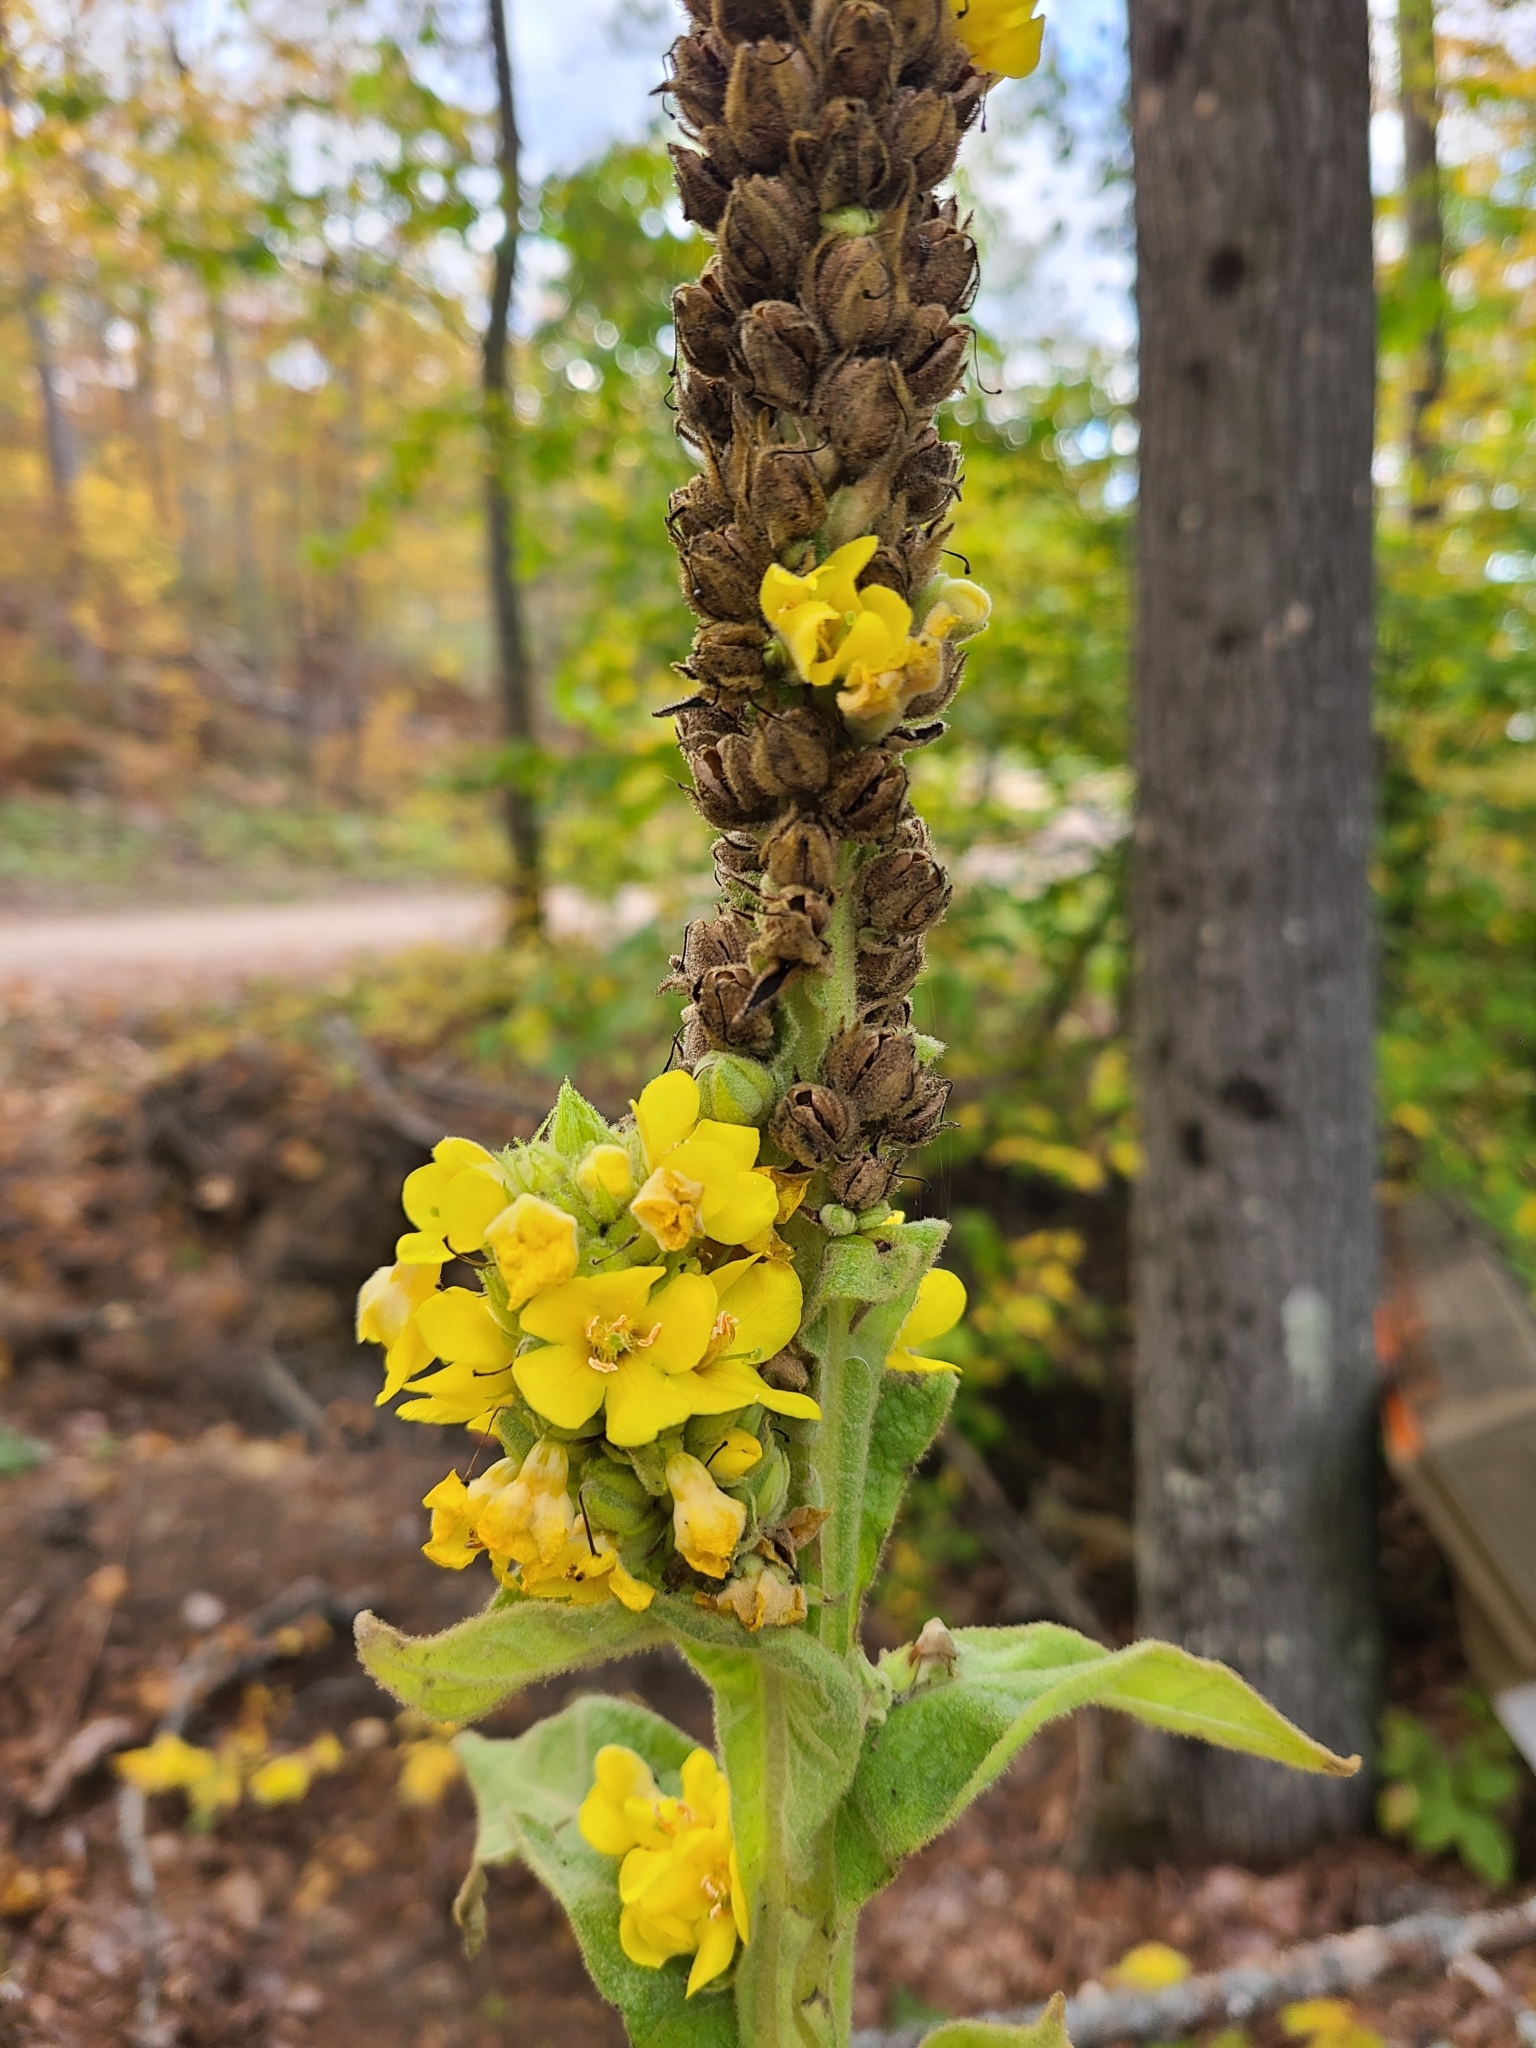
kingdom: Plantae
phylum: Tracheophyta
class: Magnoliopsida
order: Lamiales
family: Scrophulariaceae
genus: Verbascum
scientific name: Verbascum thapsus
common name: Common mullein
